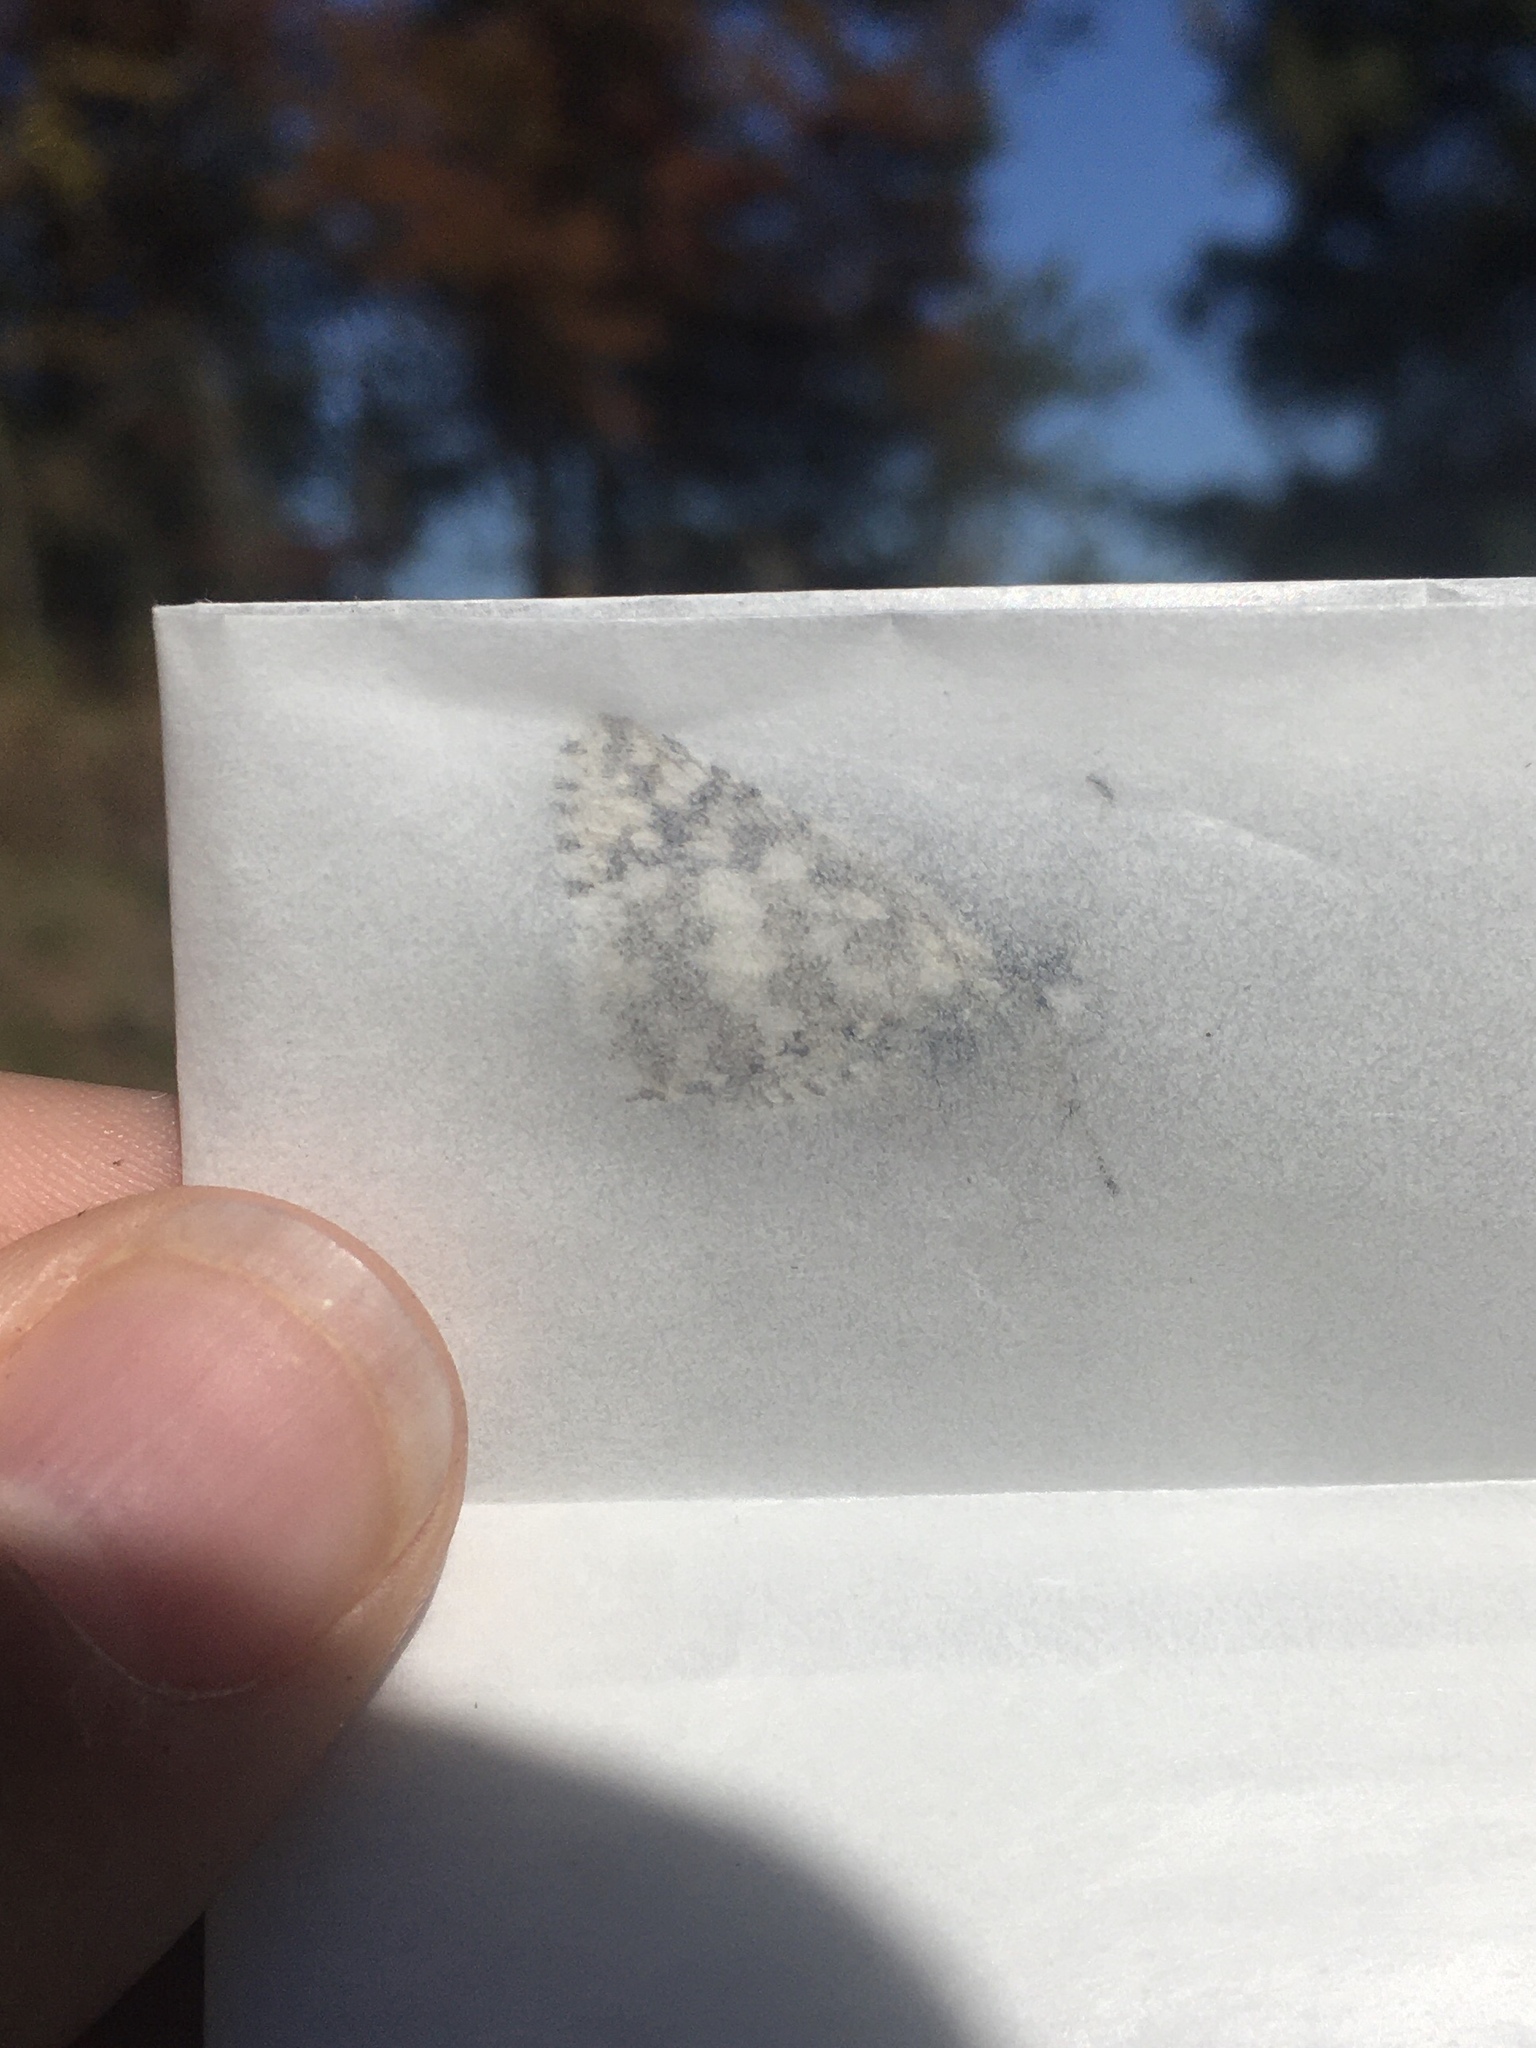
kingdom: Animalia
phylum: Arthropoda
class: Insecta
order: Lepidoptera
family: Hesperiidae
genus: Burnsius
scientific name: Burnsius communis
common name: Common checkered-skipper
